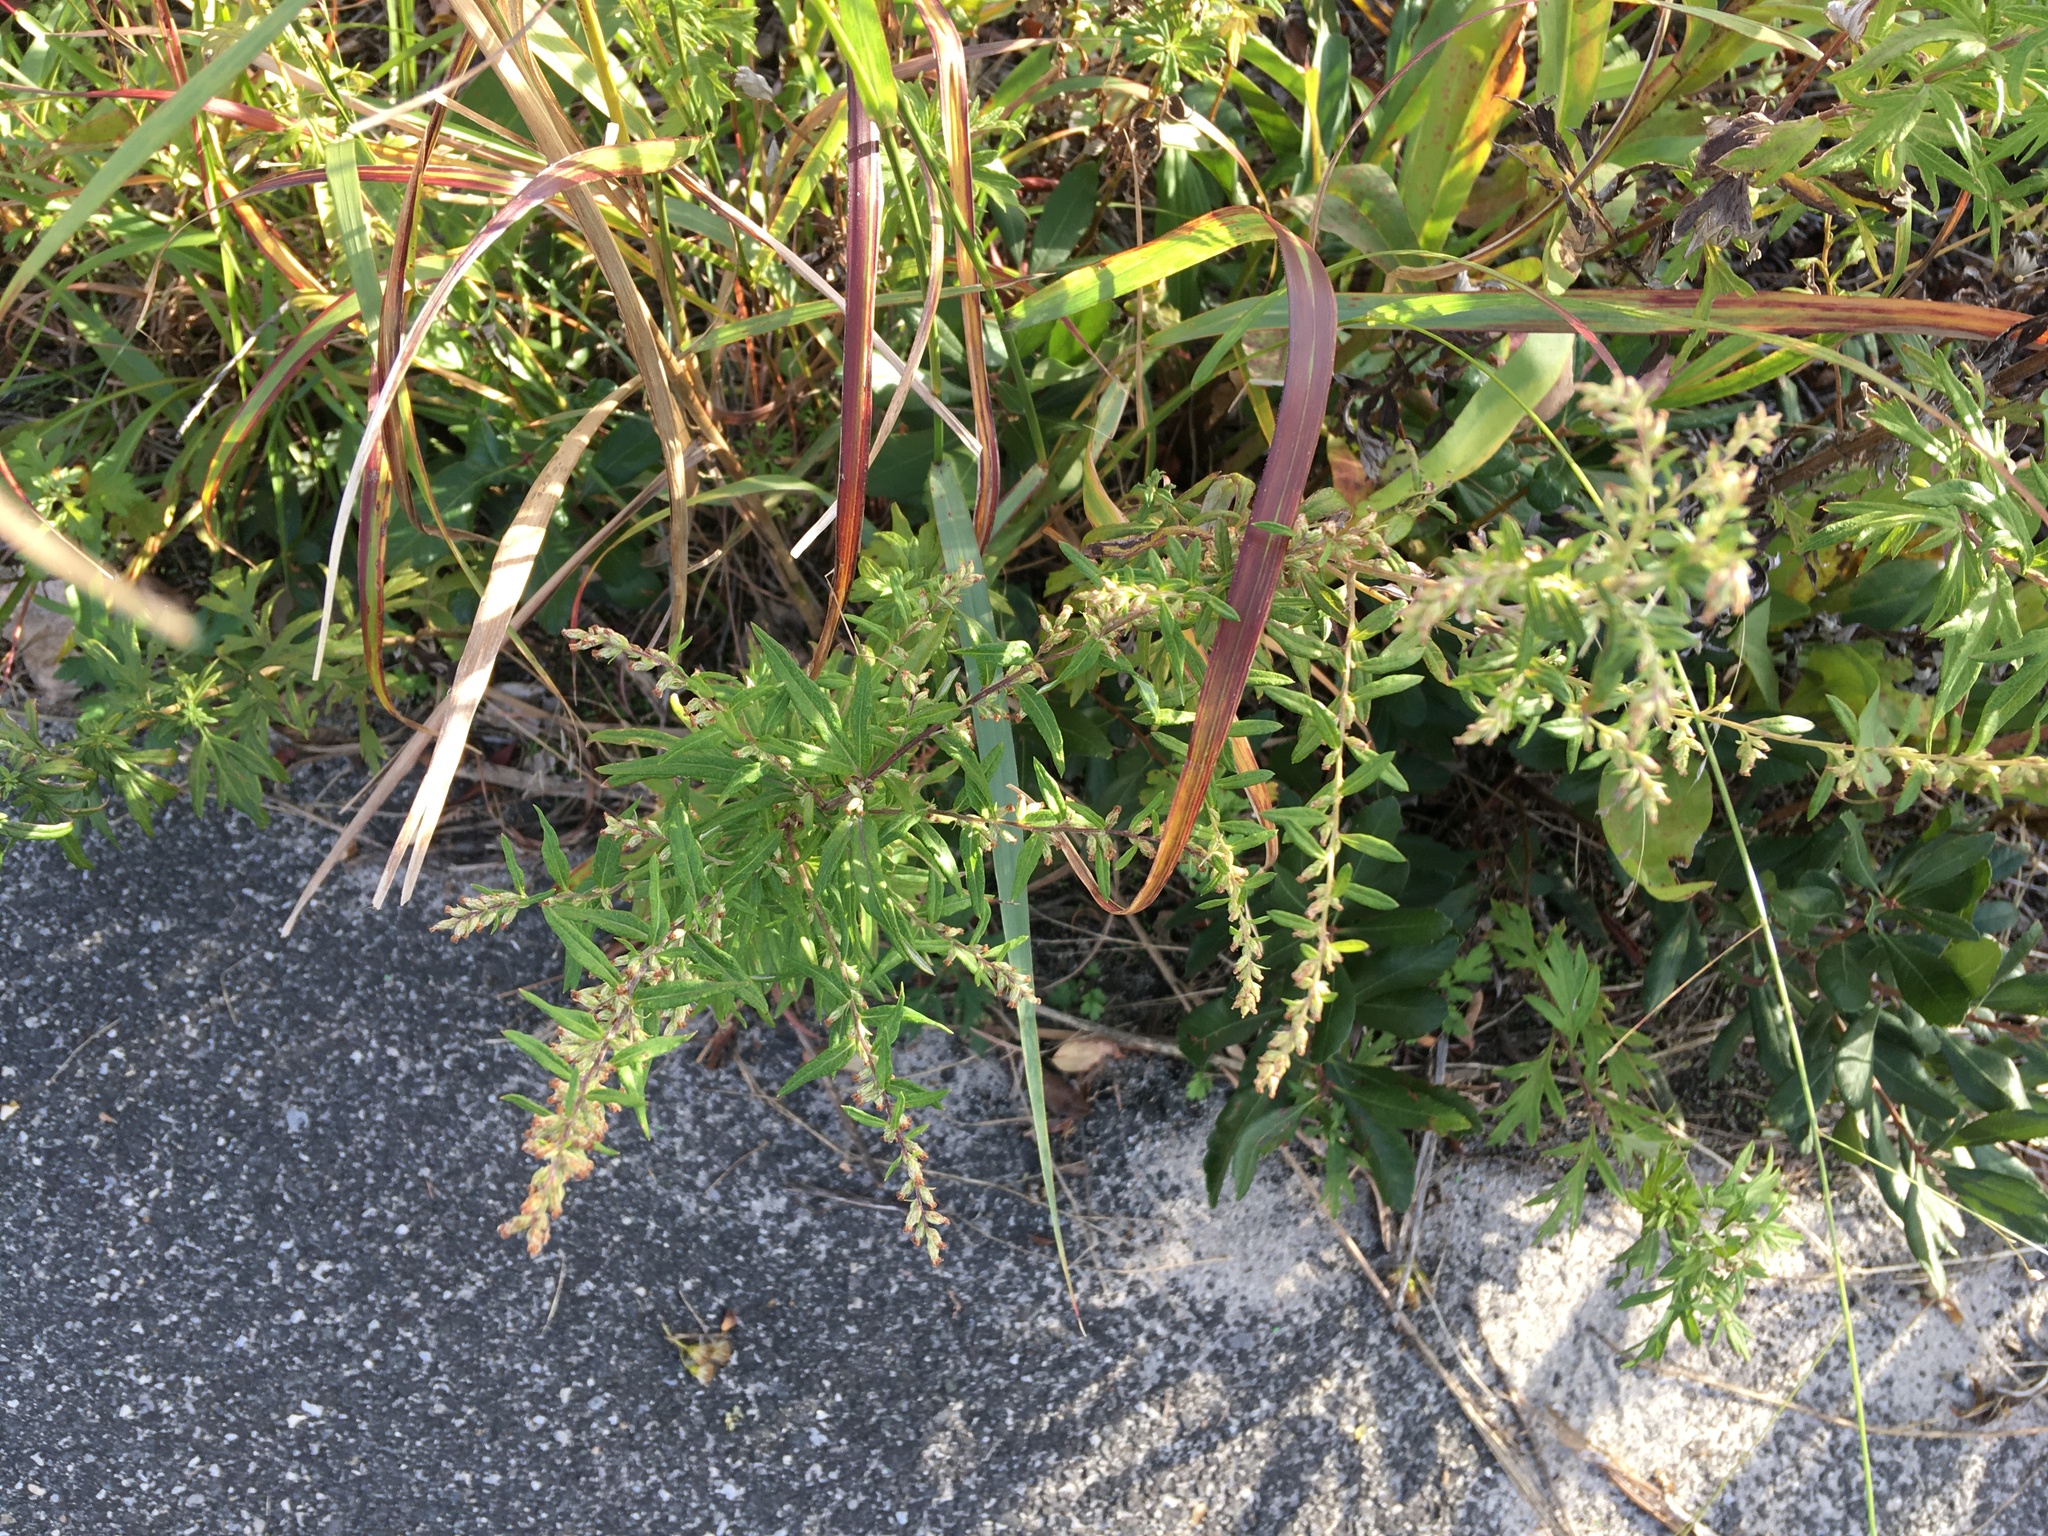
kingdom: Plantae
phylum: Tracheophyta
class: Magnoliopsida
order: Asterales
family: Asteraceae
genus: Artemisia
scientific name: Artemisia vulgaris
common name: Mugwort
